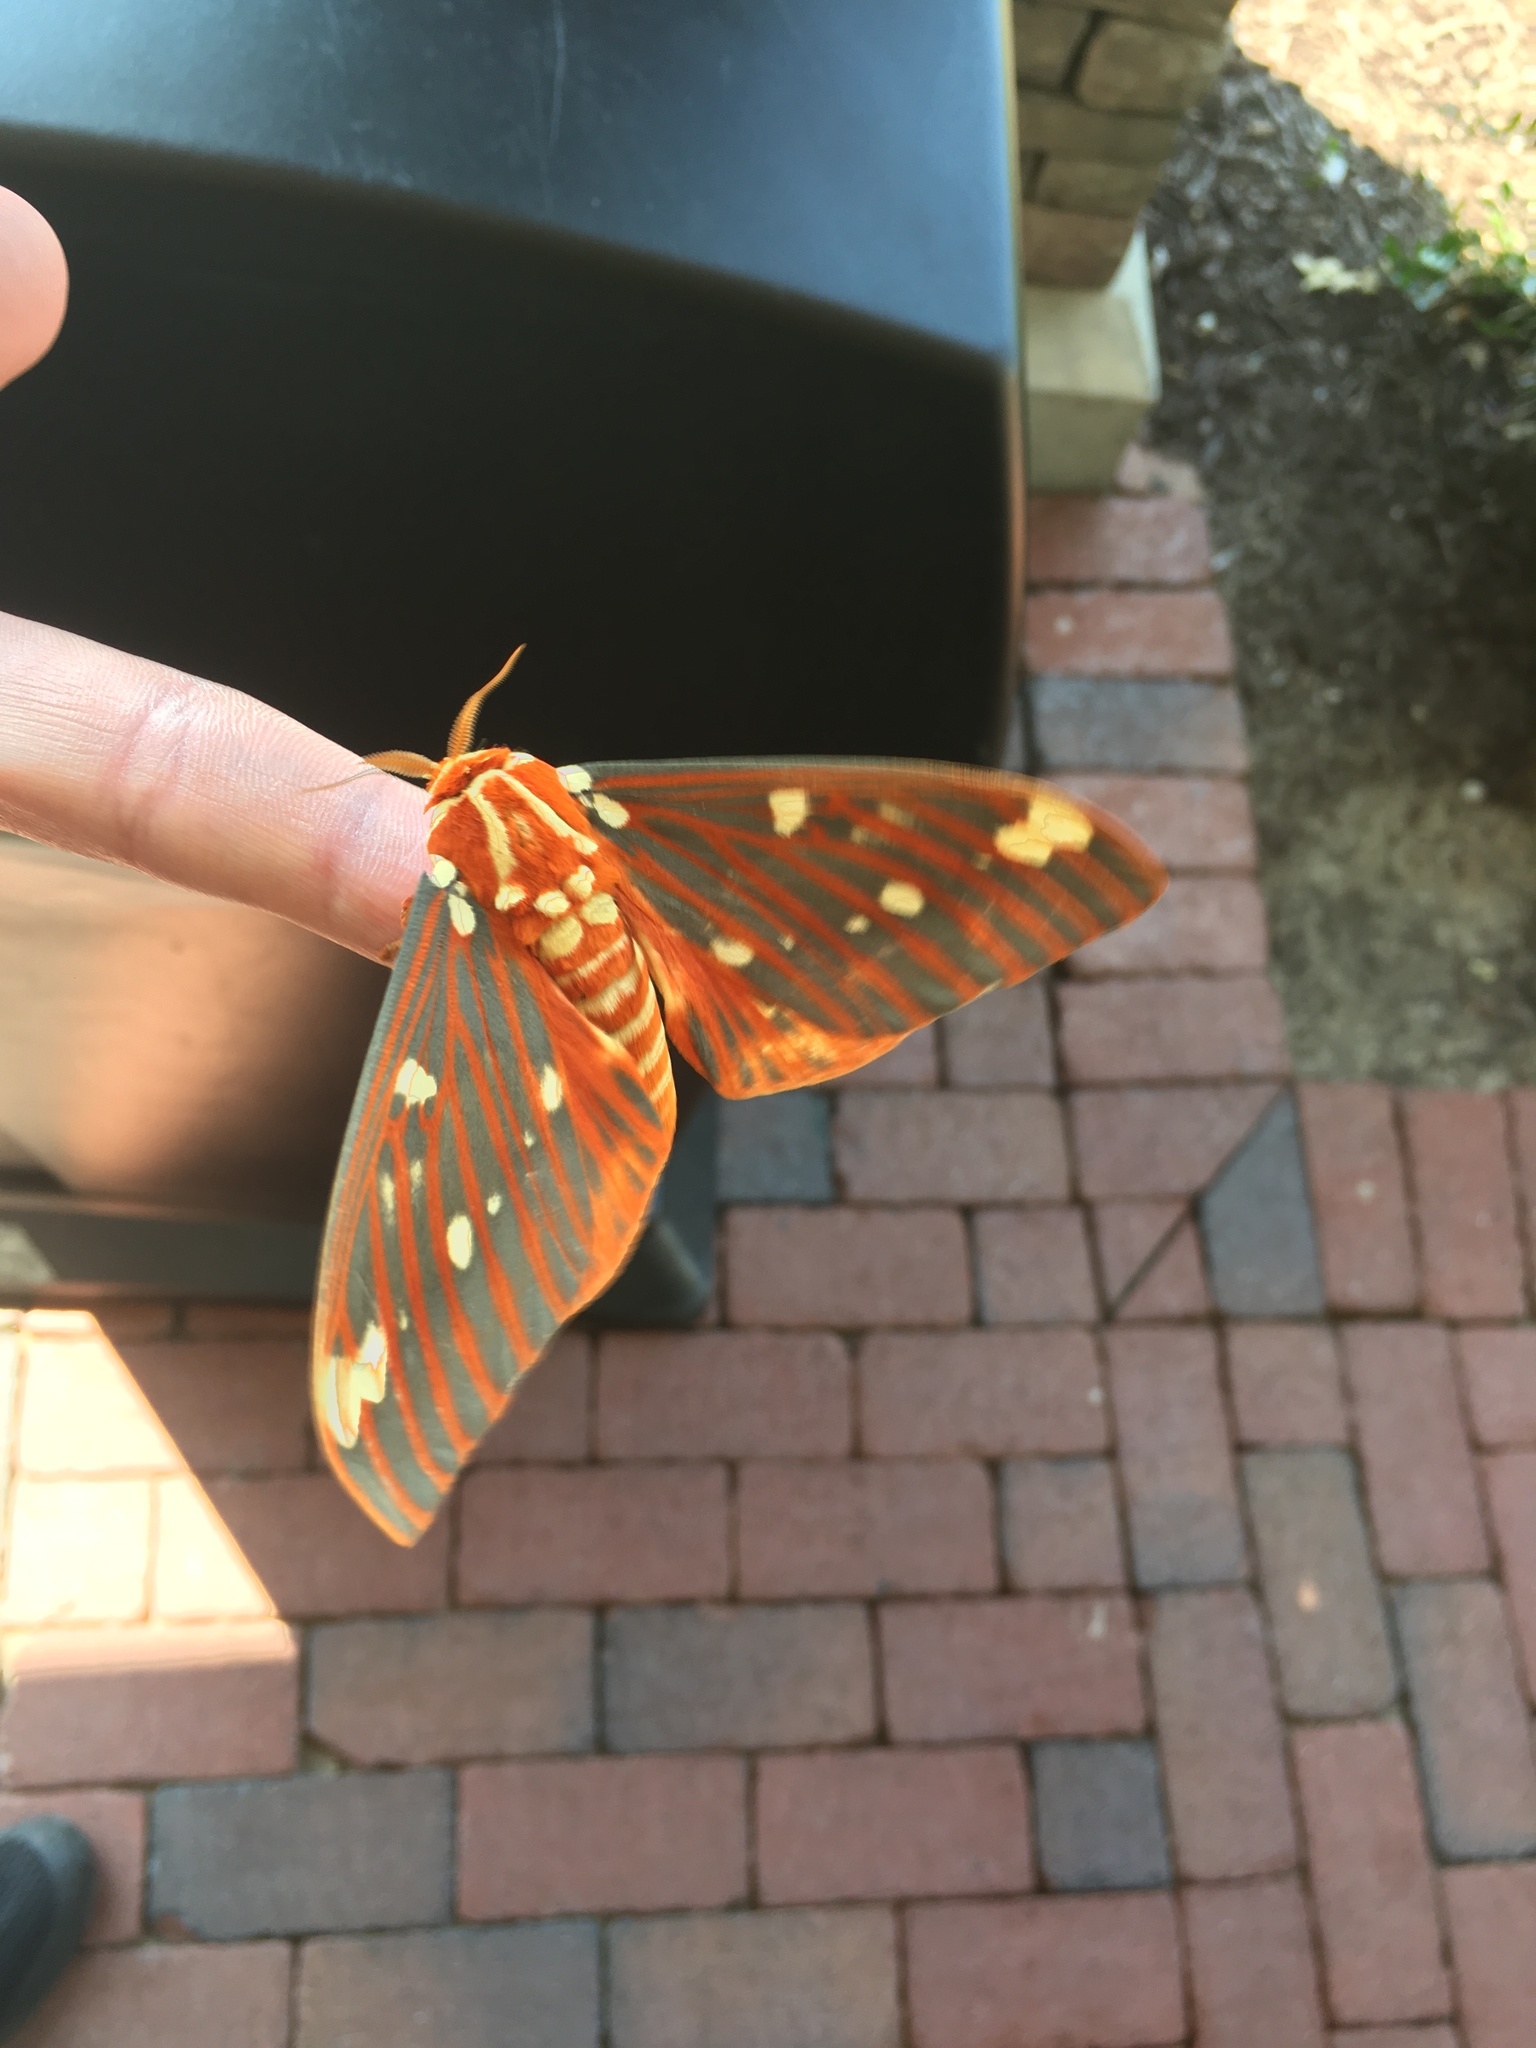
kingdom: Animalia
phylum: Arthropoda
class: Insecta
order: Lepidoptera
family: Saturniidae
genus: Citheronia
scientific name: Citheronia regalis
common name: Hickory horned devil
